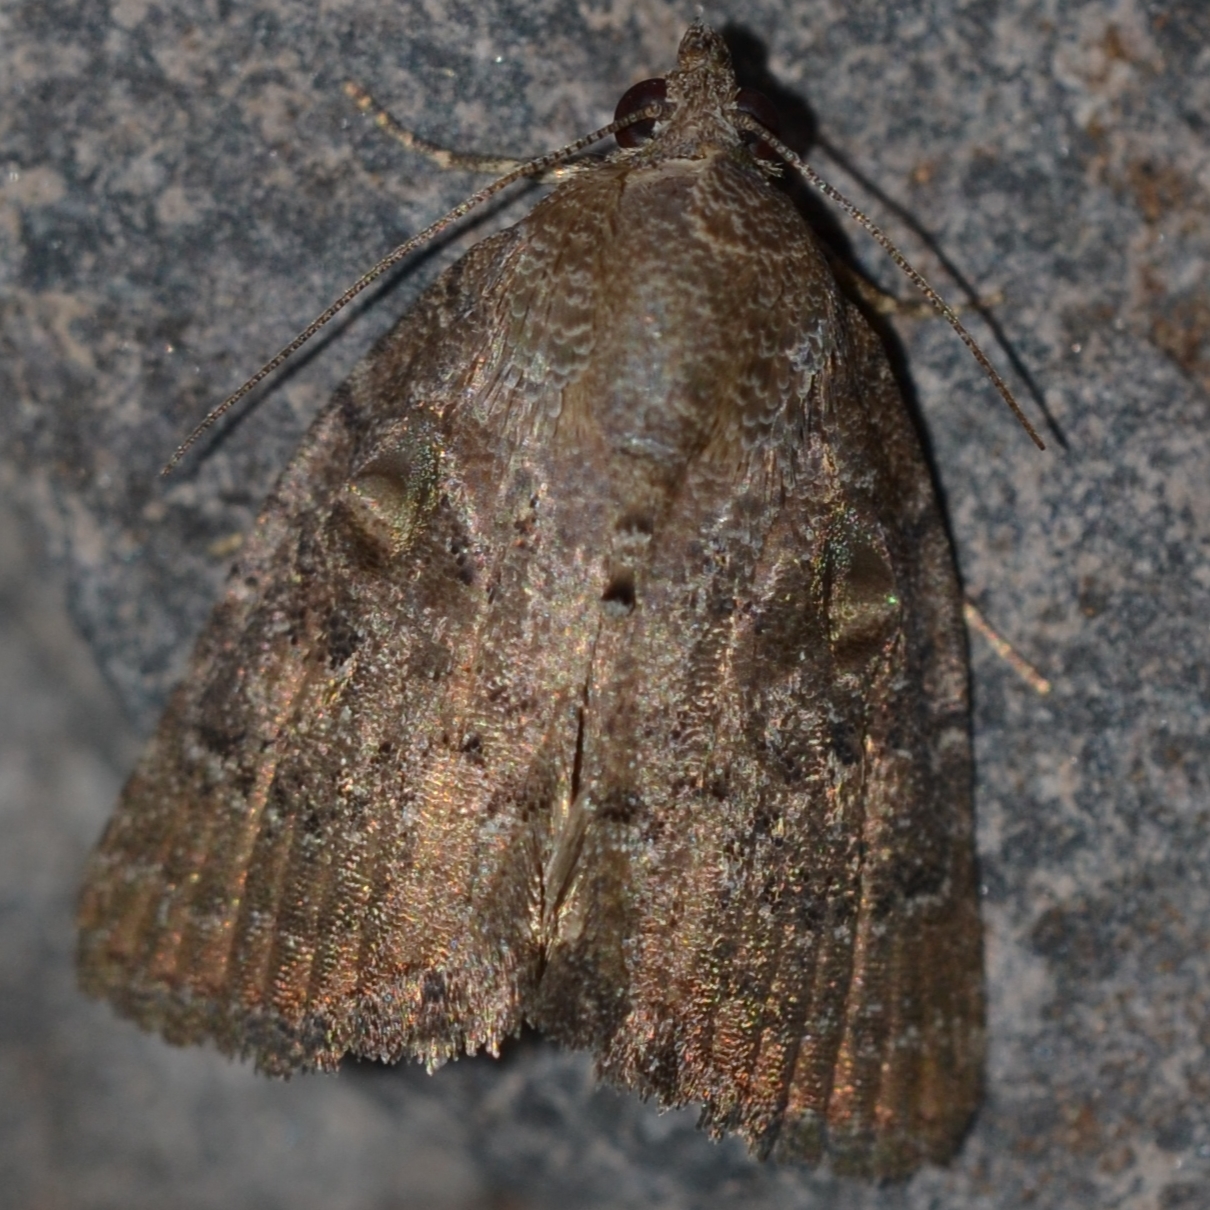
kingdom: Animalia
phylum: Arthropoda
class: Insecta
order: Lepidoptera
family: Noctuidae
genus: Amyna
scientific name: Amyna natalis
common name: Iiima moth
